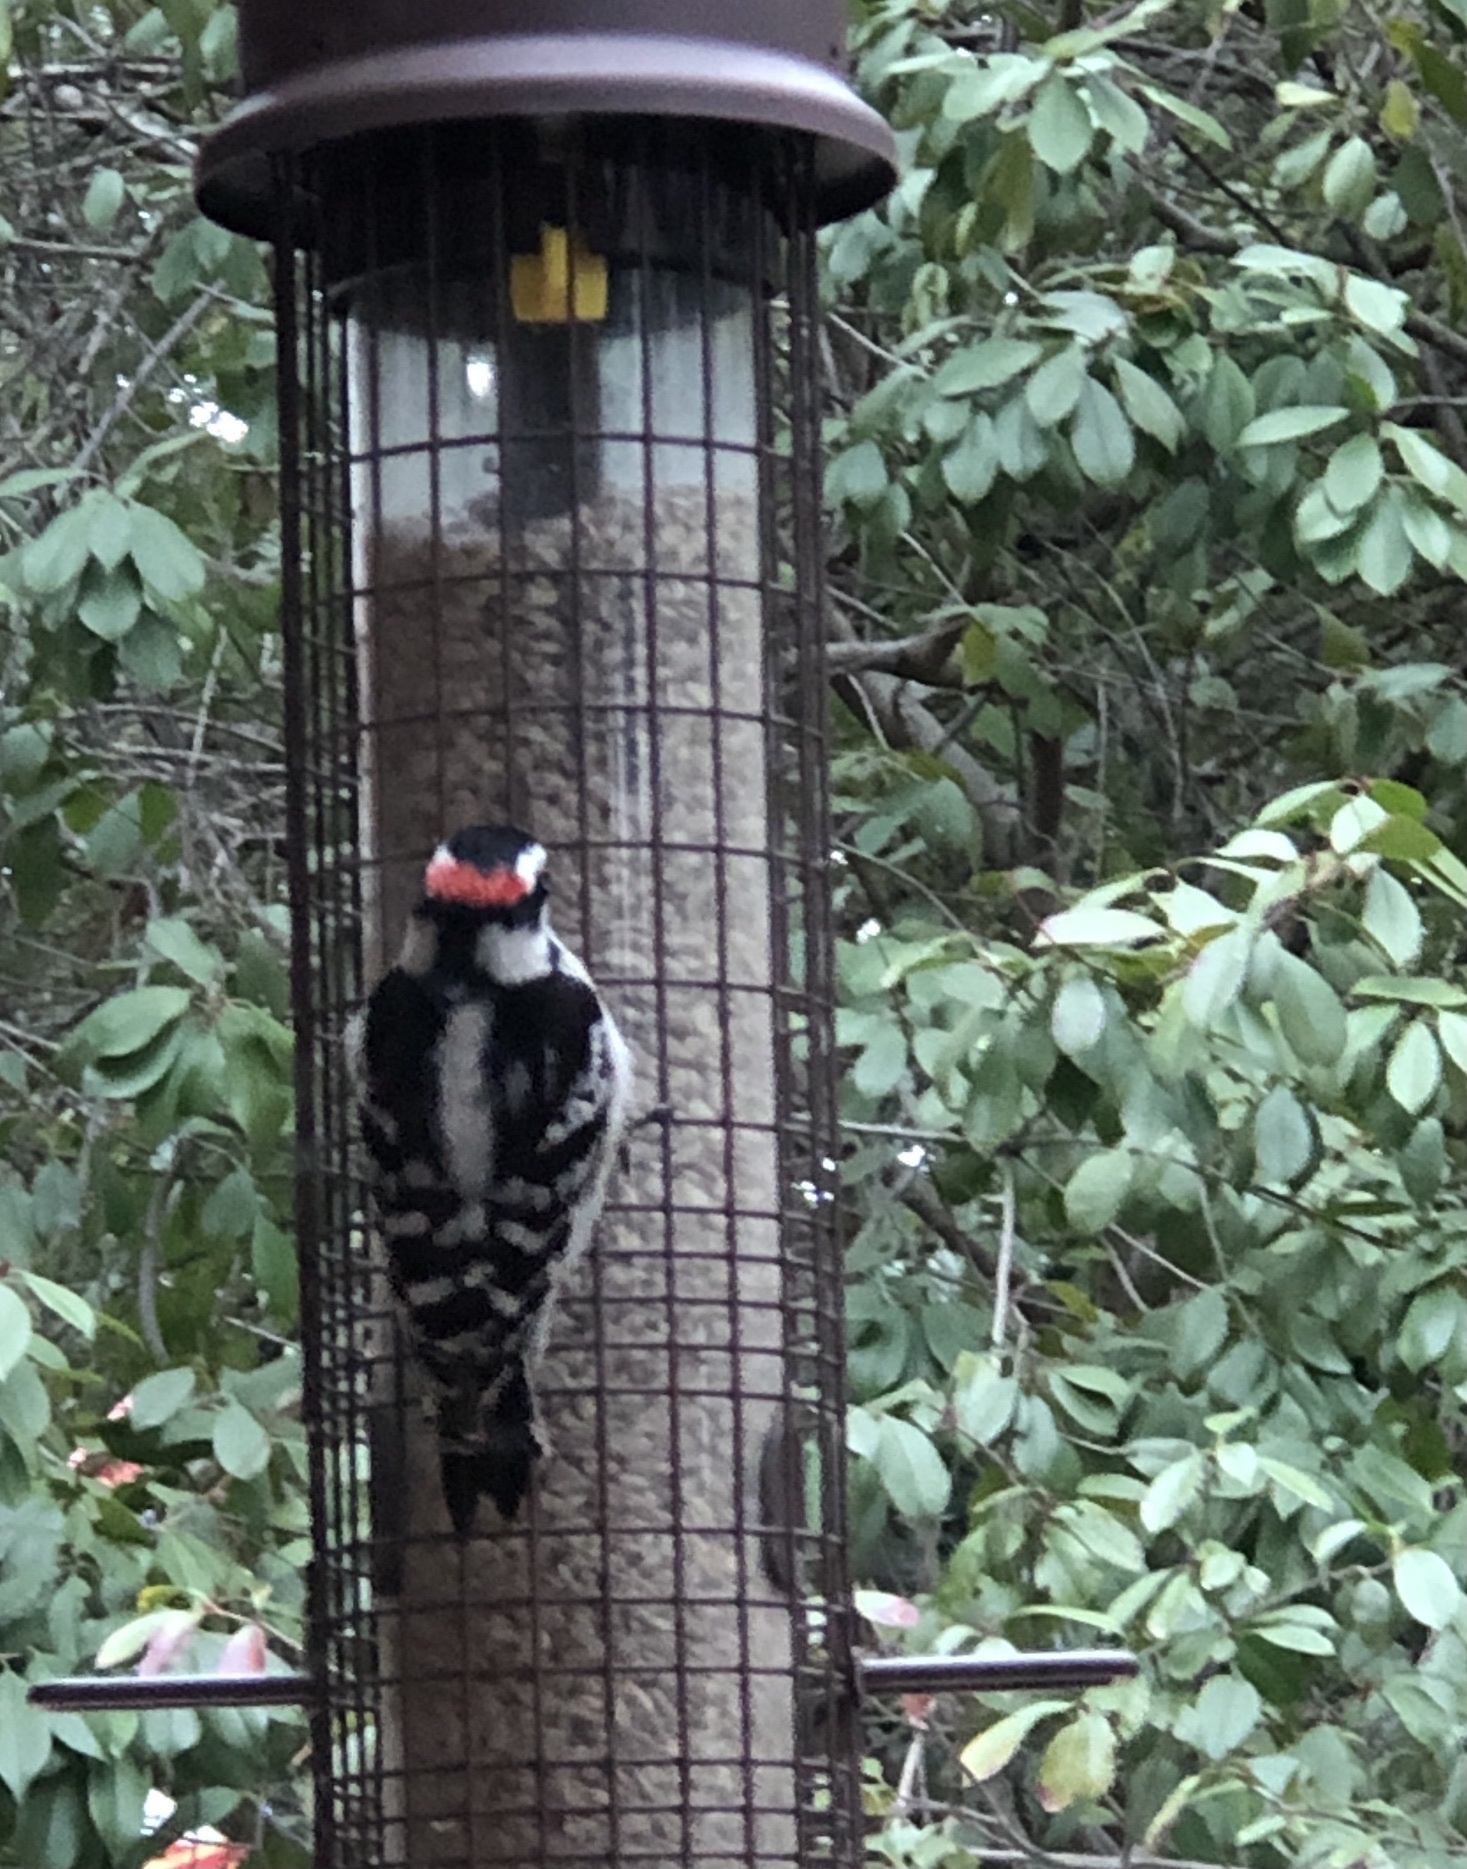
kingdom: Animalia
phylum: Chordata
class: Aves
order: Piciformes
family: Picidae
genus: Dryobates
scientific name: Dryobates pubescens
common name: Downy woodpecker
